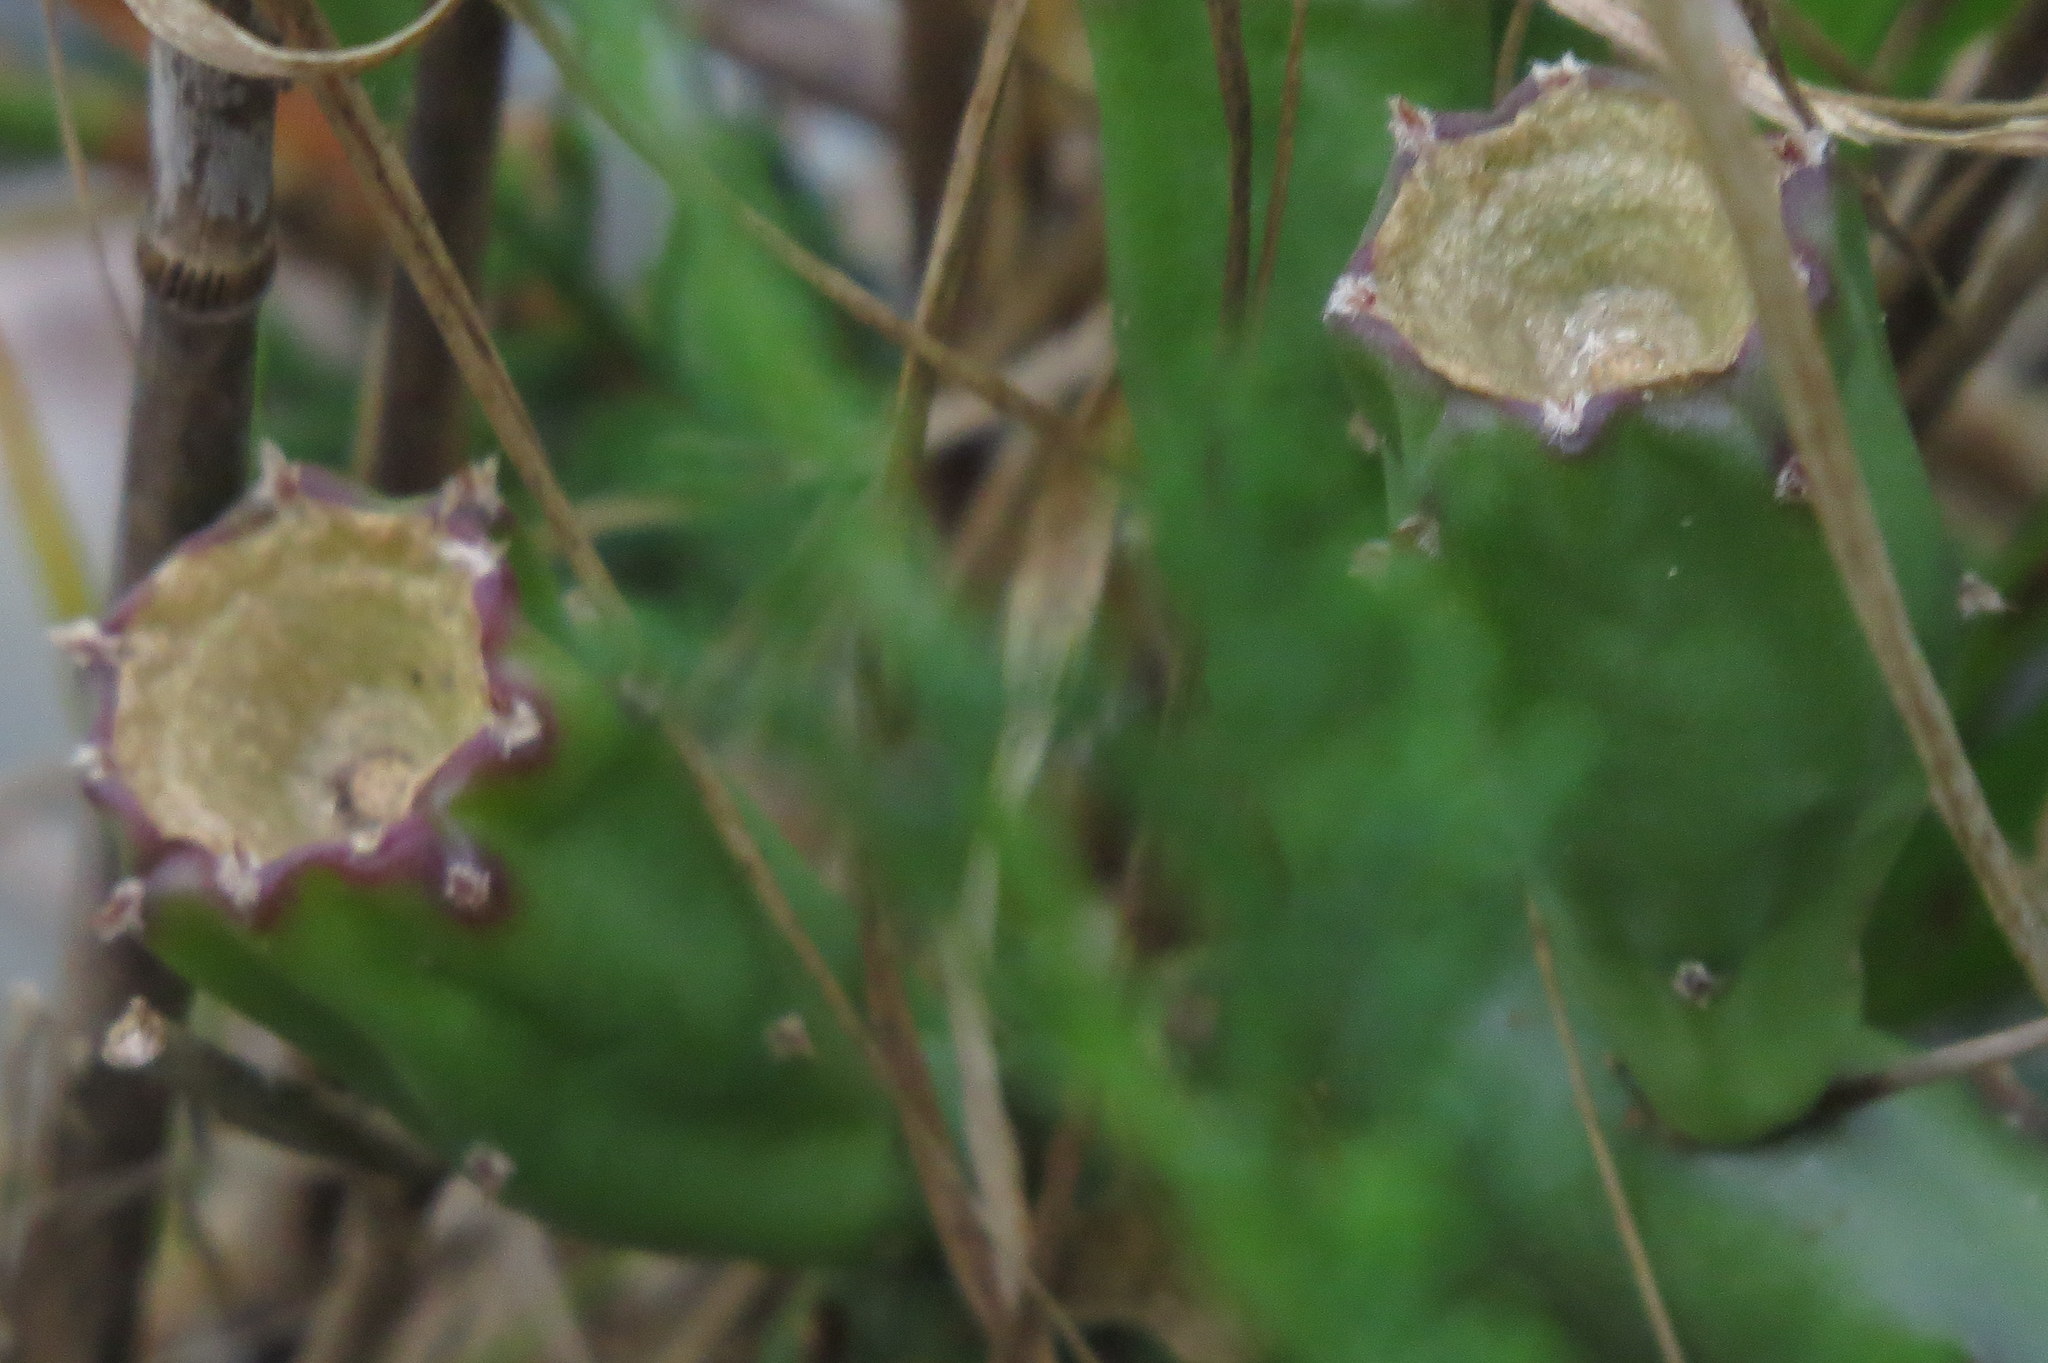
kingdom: Plantae
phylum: Tracheophyta
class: Magnoliopsida
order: Caryophyllales
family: Cactaceae
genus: Opuntia
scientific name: Opuntia macrorhiza
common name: Grassland pricklypear
